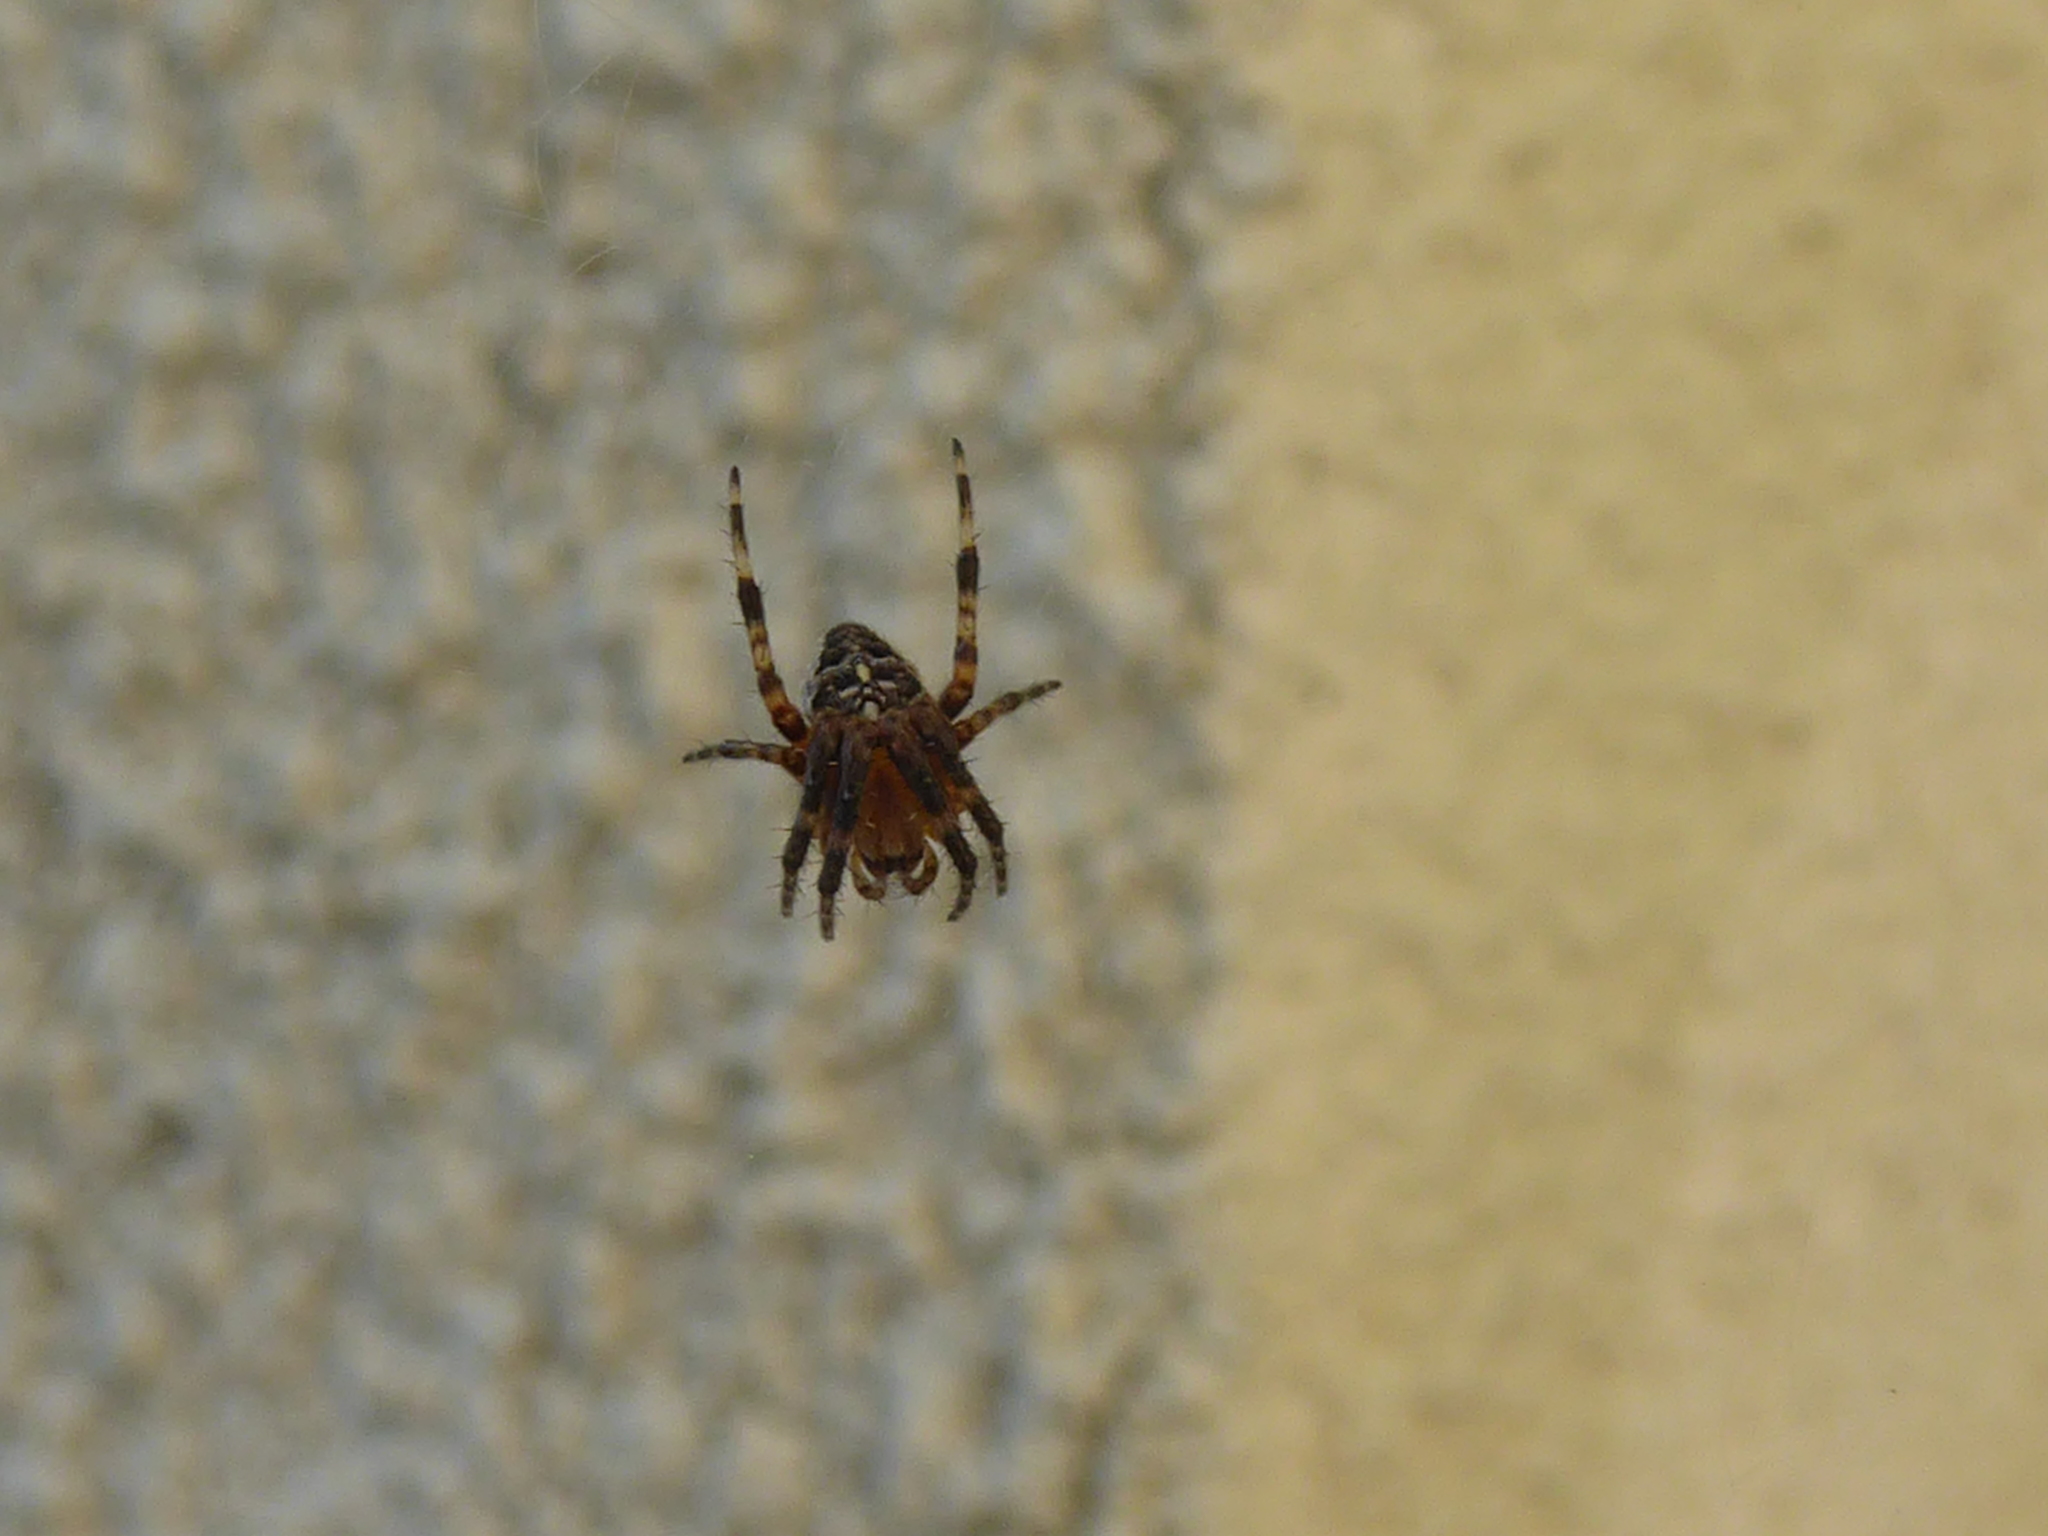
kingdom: Animalia
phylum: Arthropoda
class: Arachnida
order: Araneae
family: Araneidae
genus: Araneus
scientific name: Araneus diadematus
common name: Cross orbweaver
